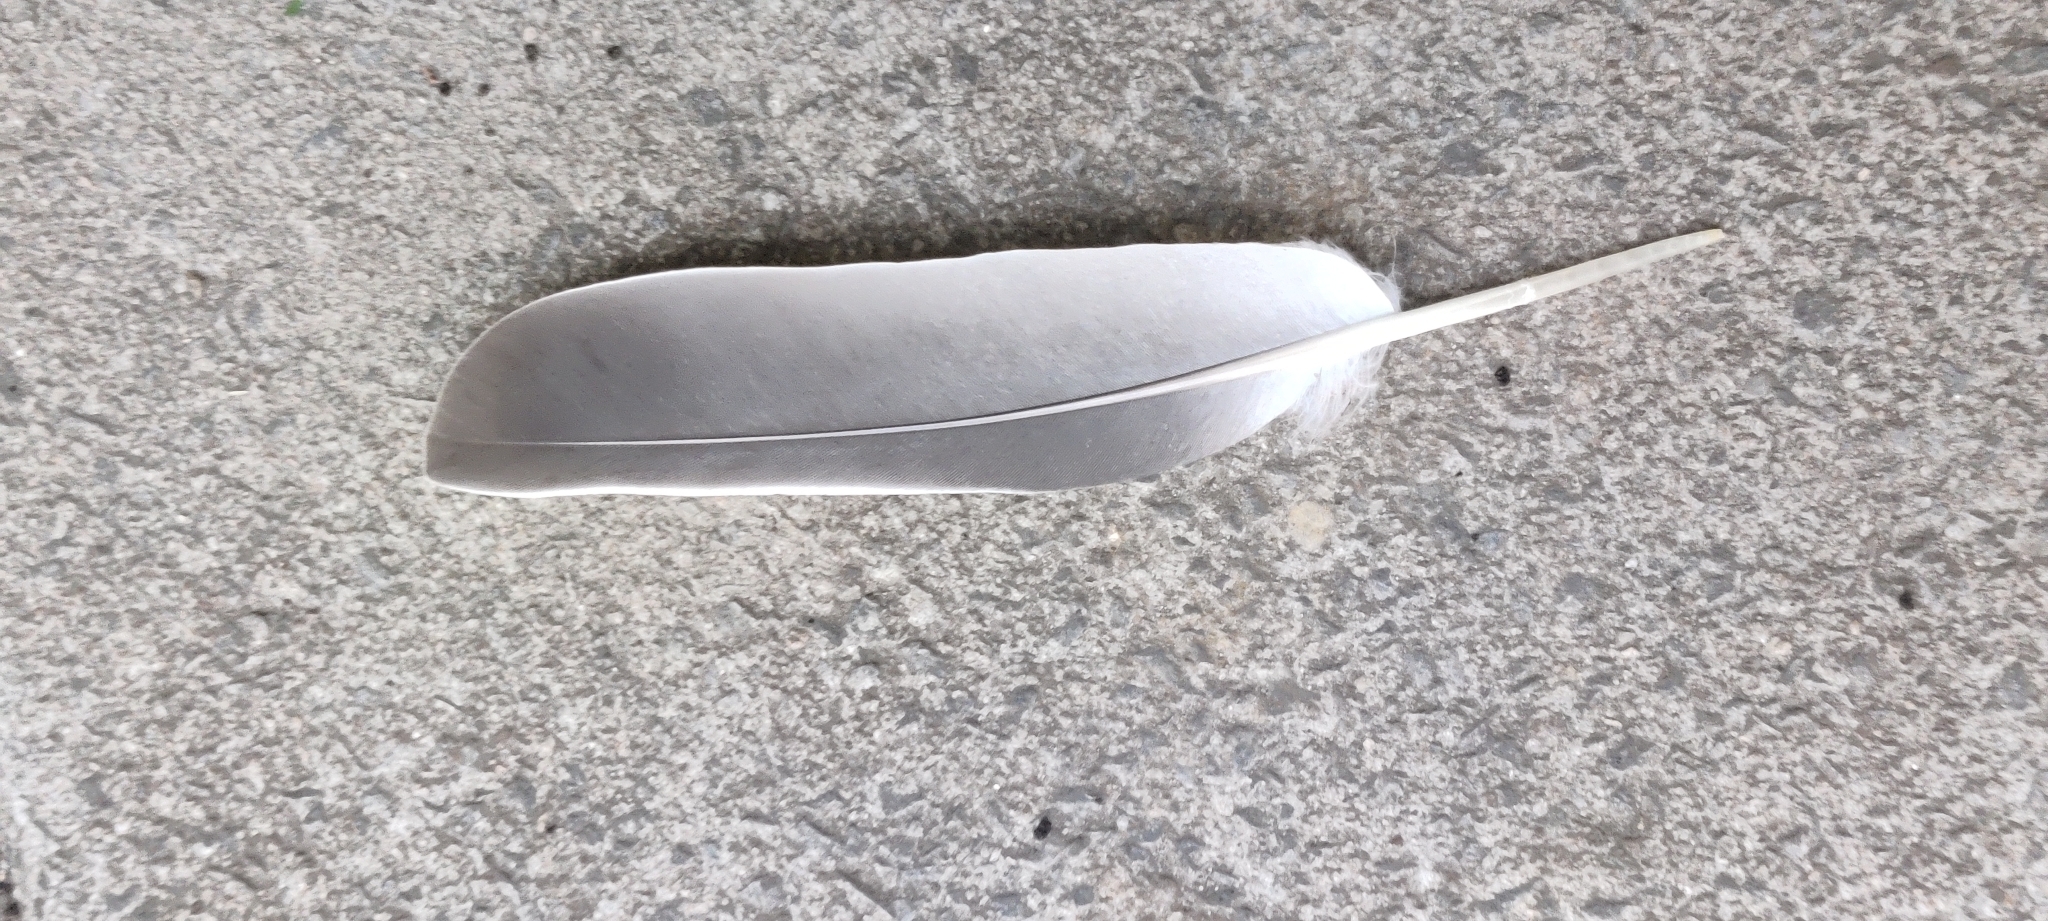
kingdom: Animalia
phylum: Chordata
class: Aves
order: Columbiformes
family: Columbidae
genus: Columba
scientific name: Columba palumbus
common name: Common wood pigeon
